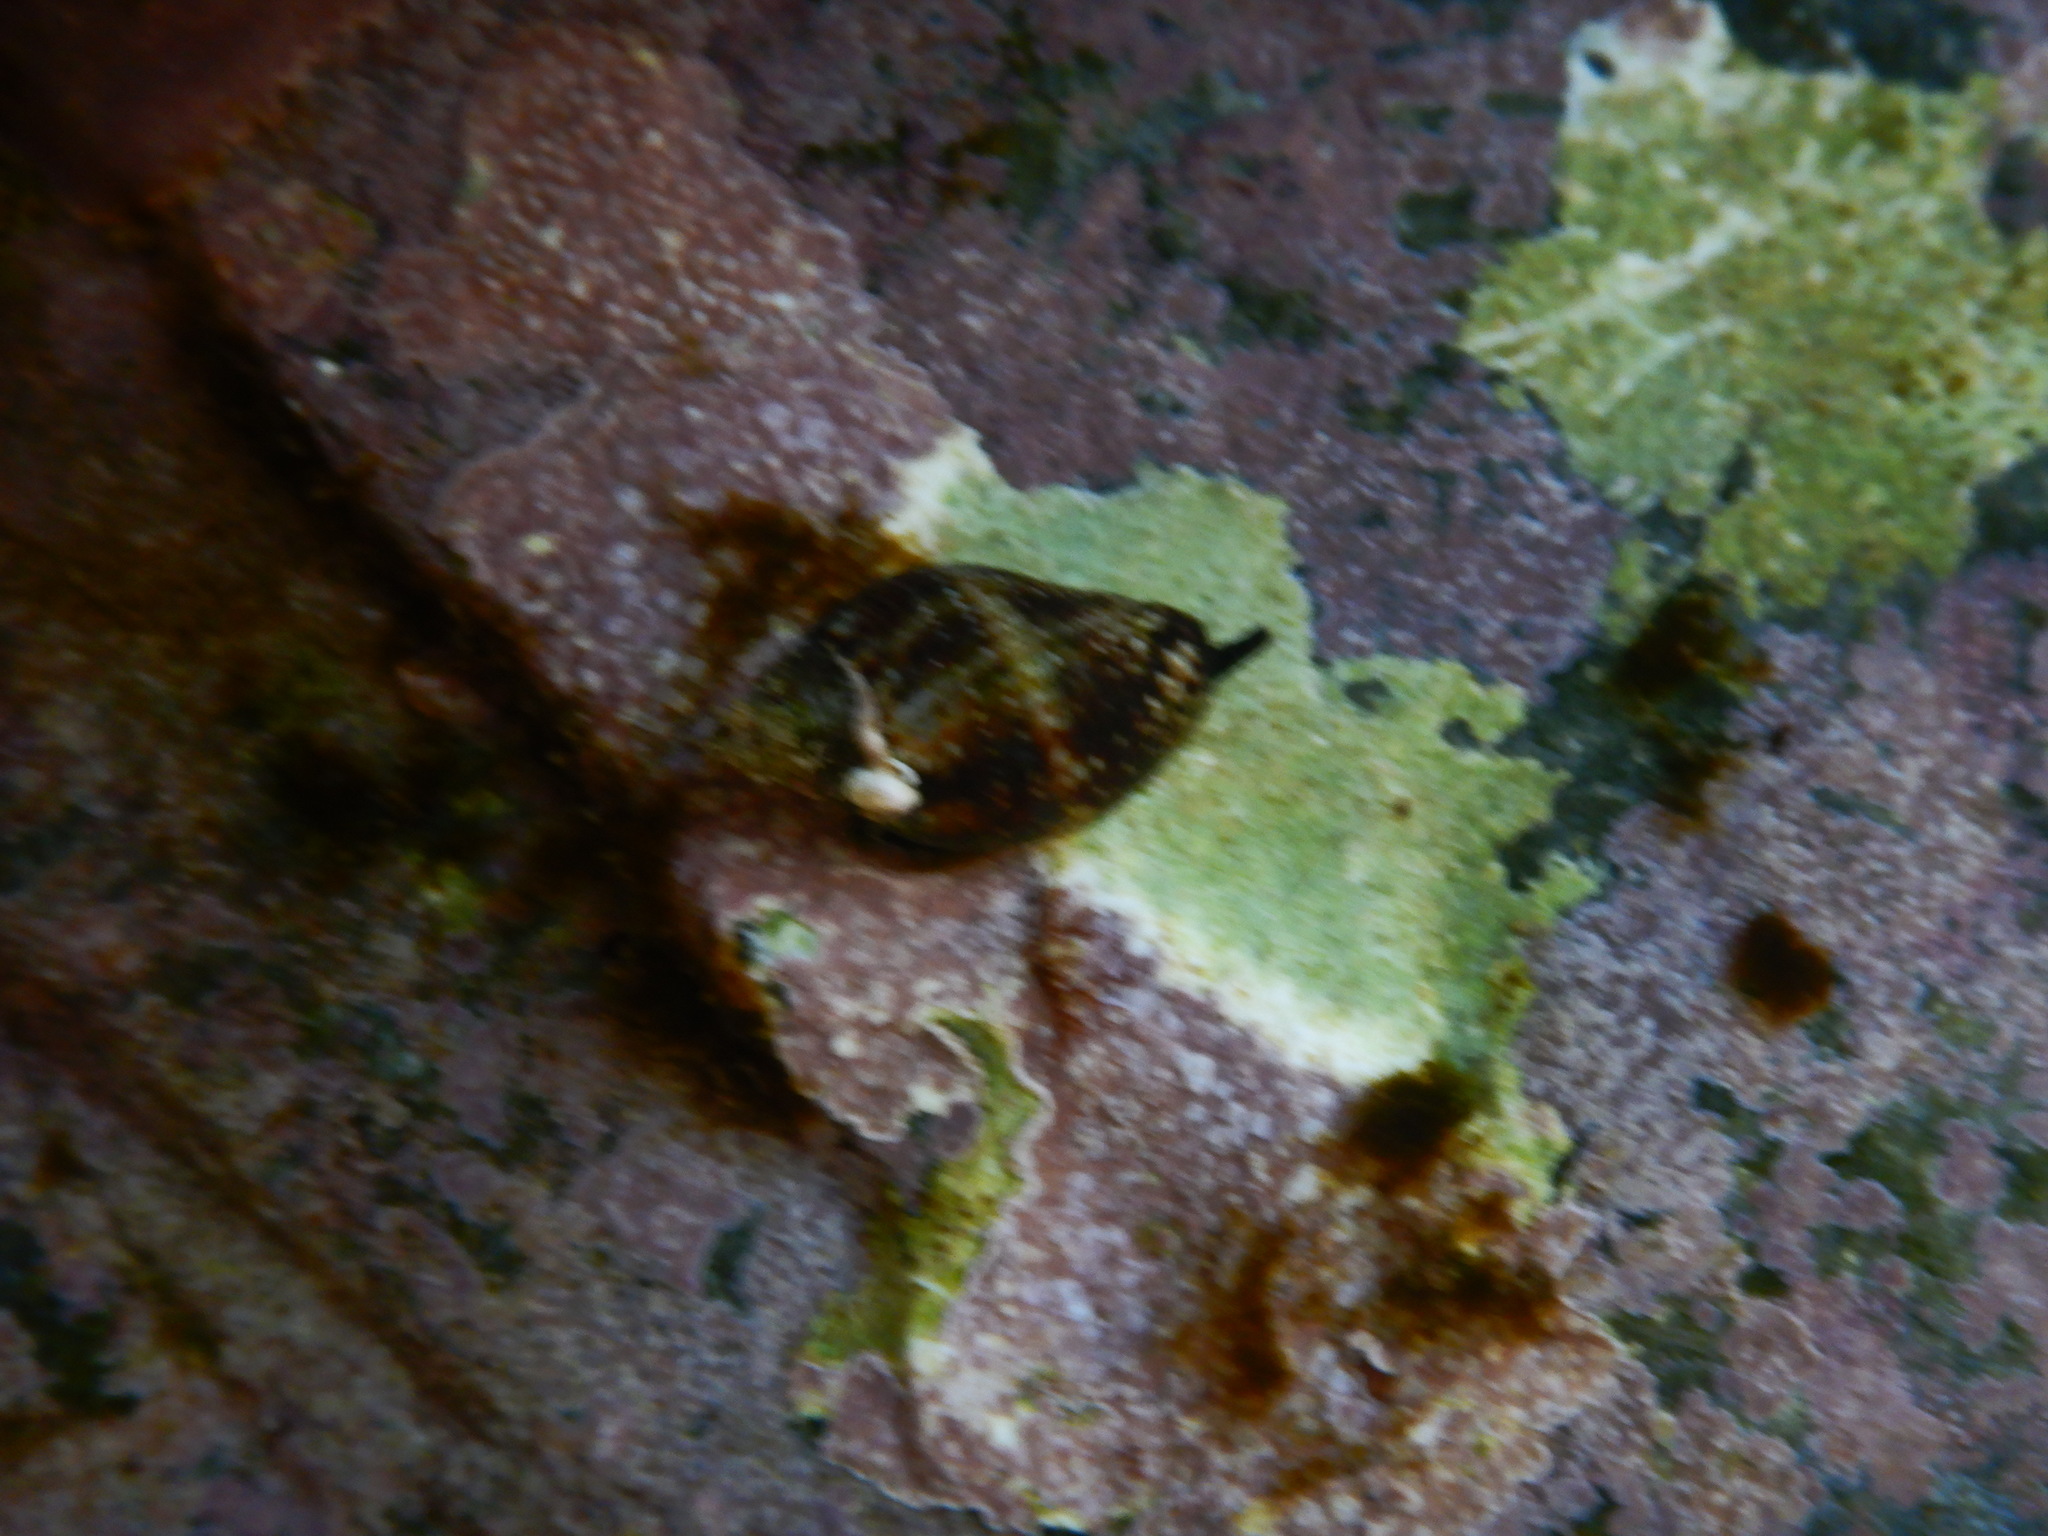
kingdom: Animalia
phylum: Mollusca
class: Gastropoda
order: Neogastropoda
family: Pisaniidae
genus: Pisania
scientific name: Pisania striata
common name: Spotted pisania
